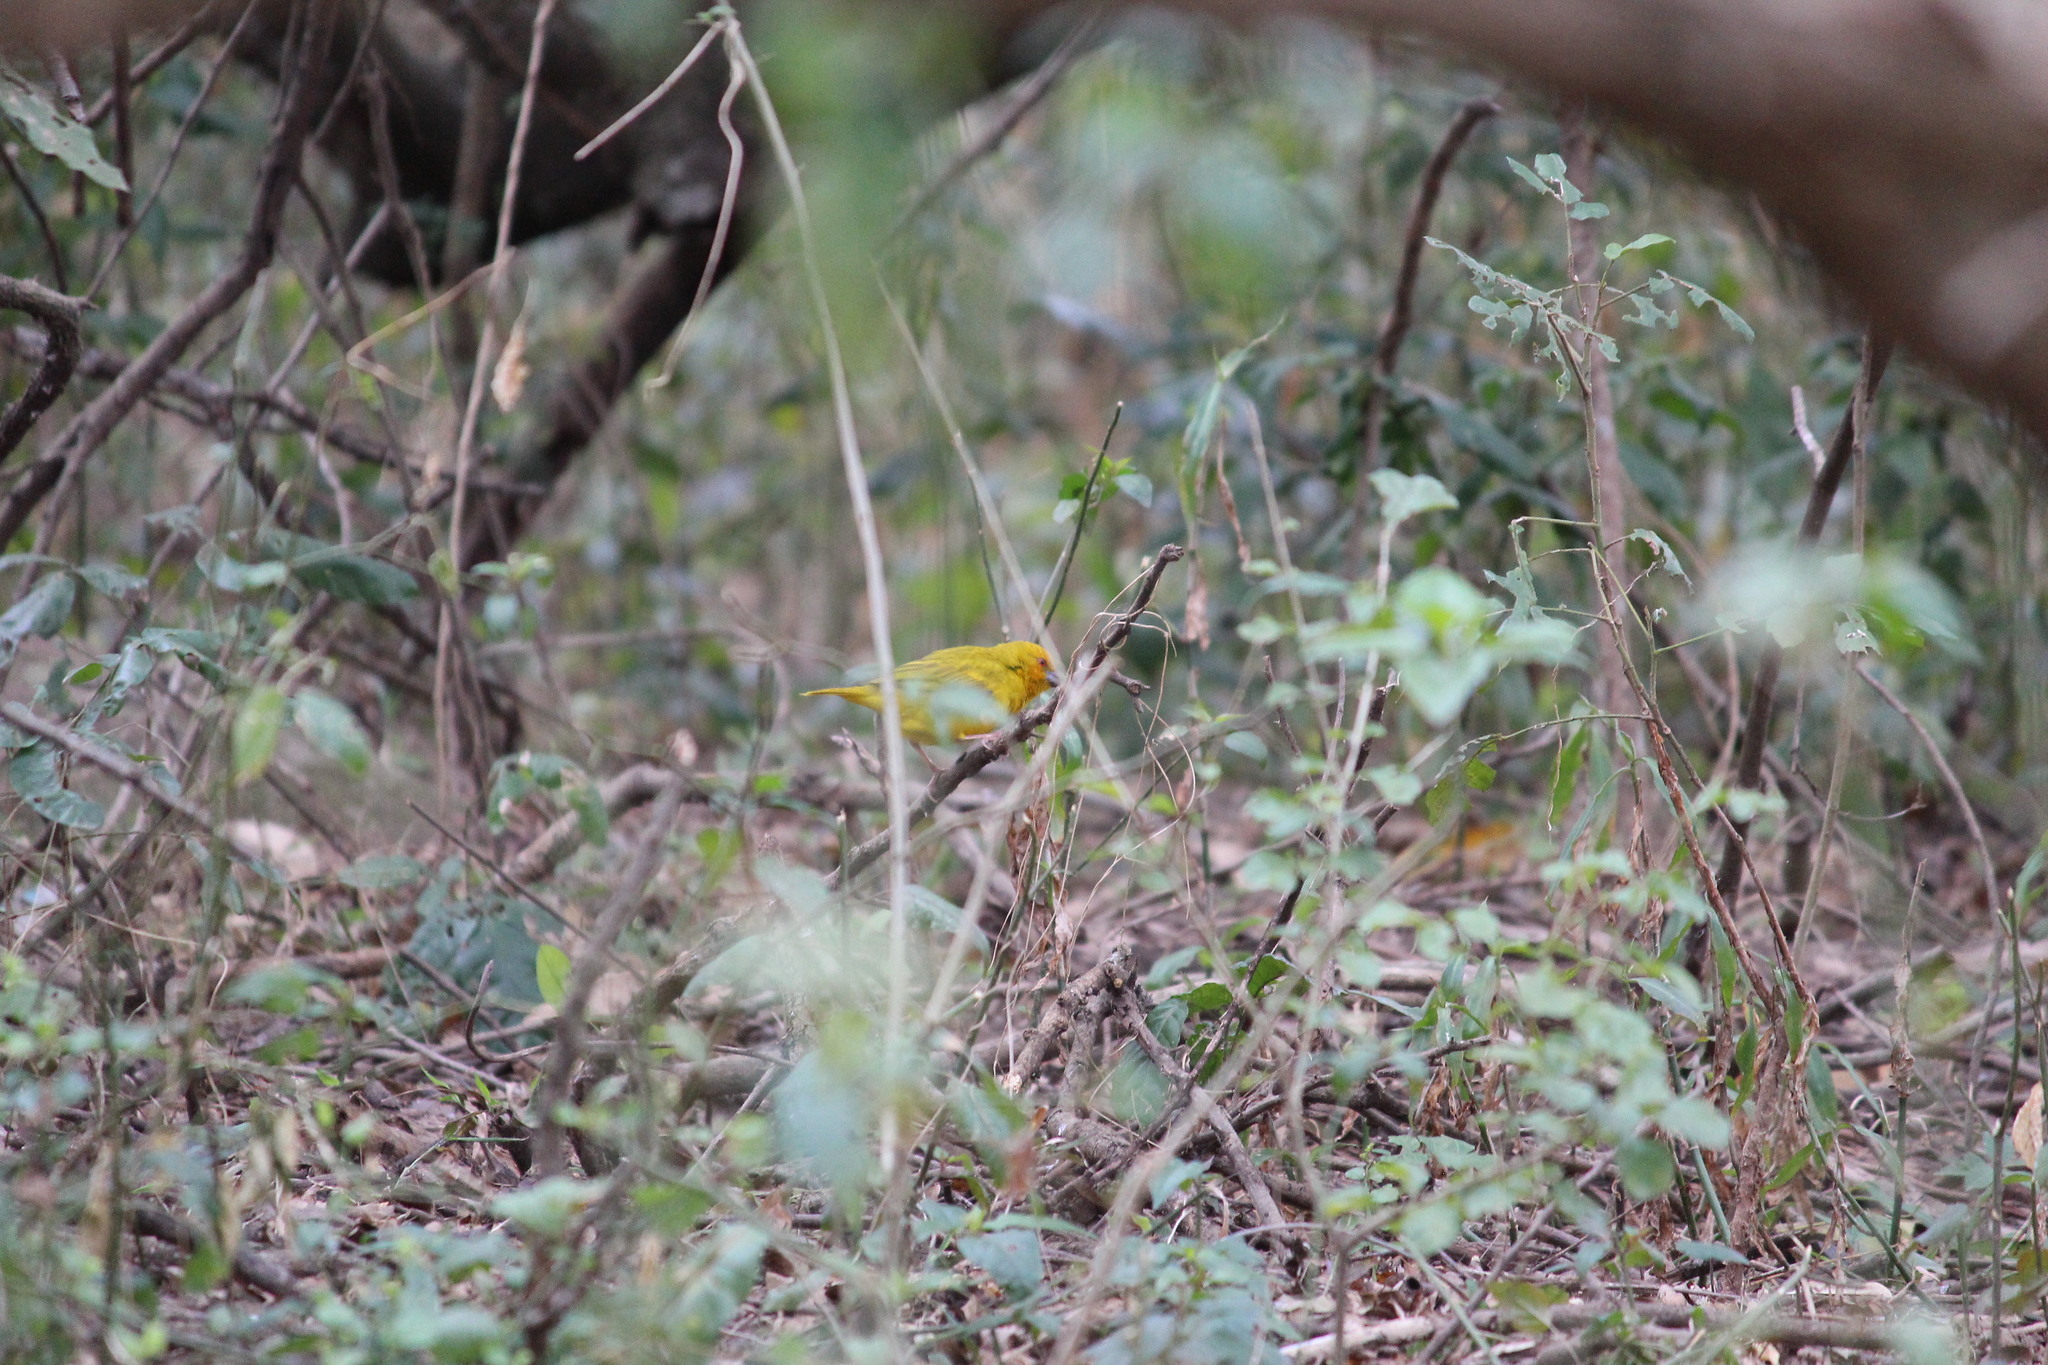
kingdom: Animalia
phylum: Chordata
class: Aves
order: Passeriformes
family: Ploceidae
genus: Ploceus
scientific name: Ploceus subaureus
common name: Yellow weaver
